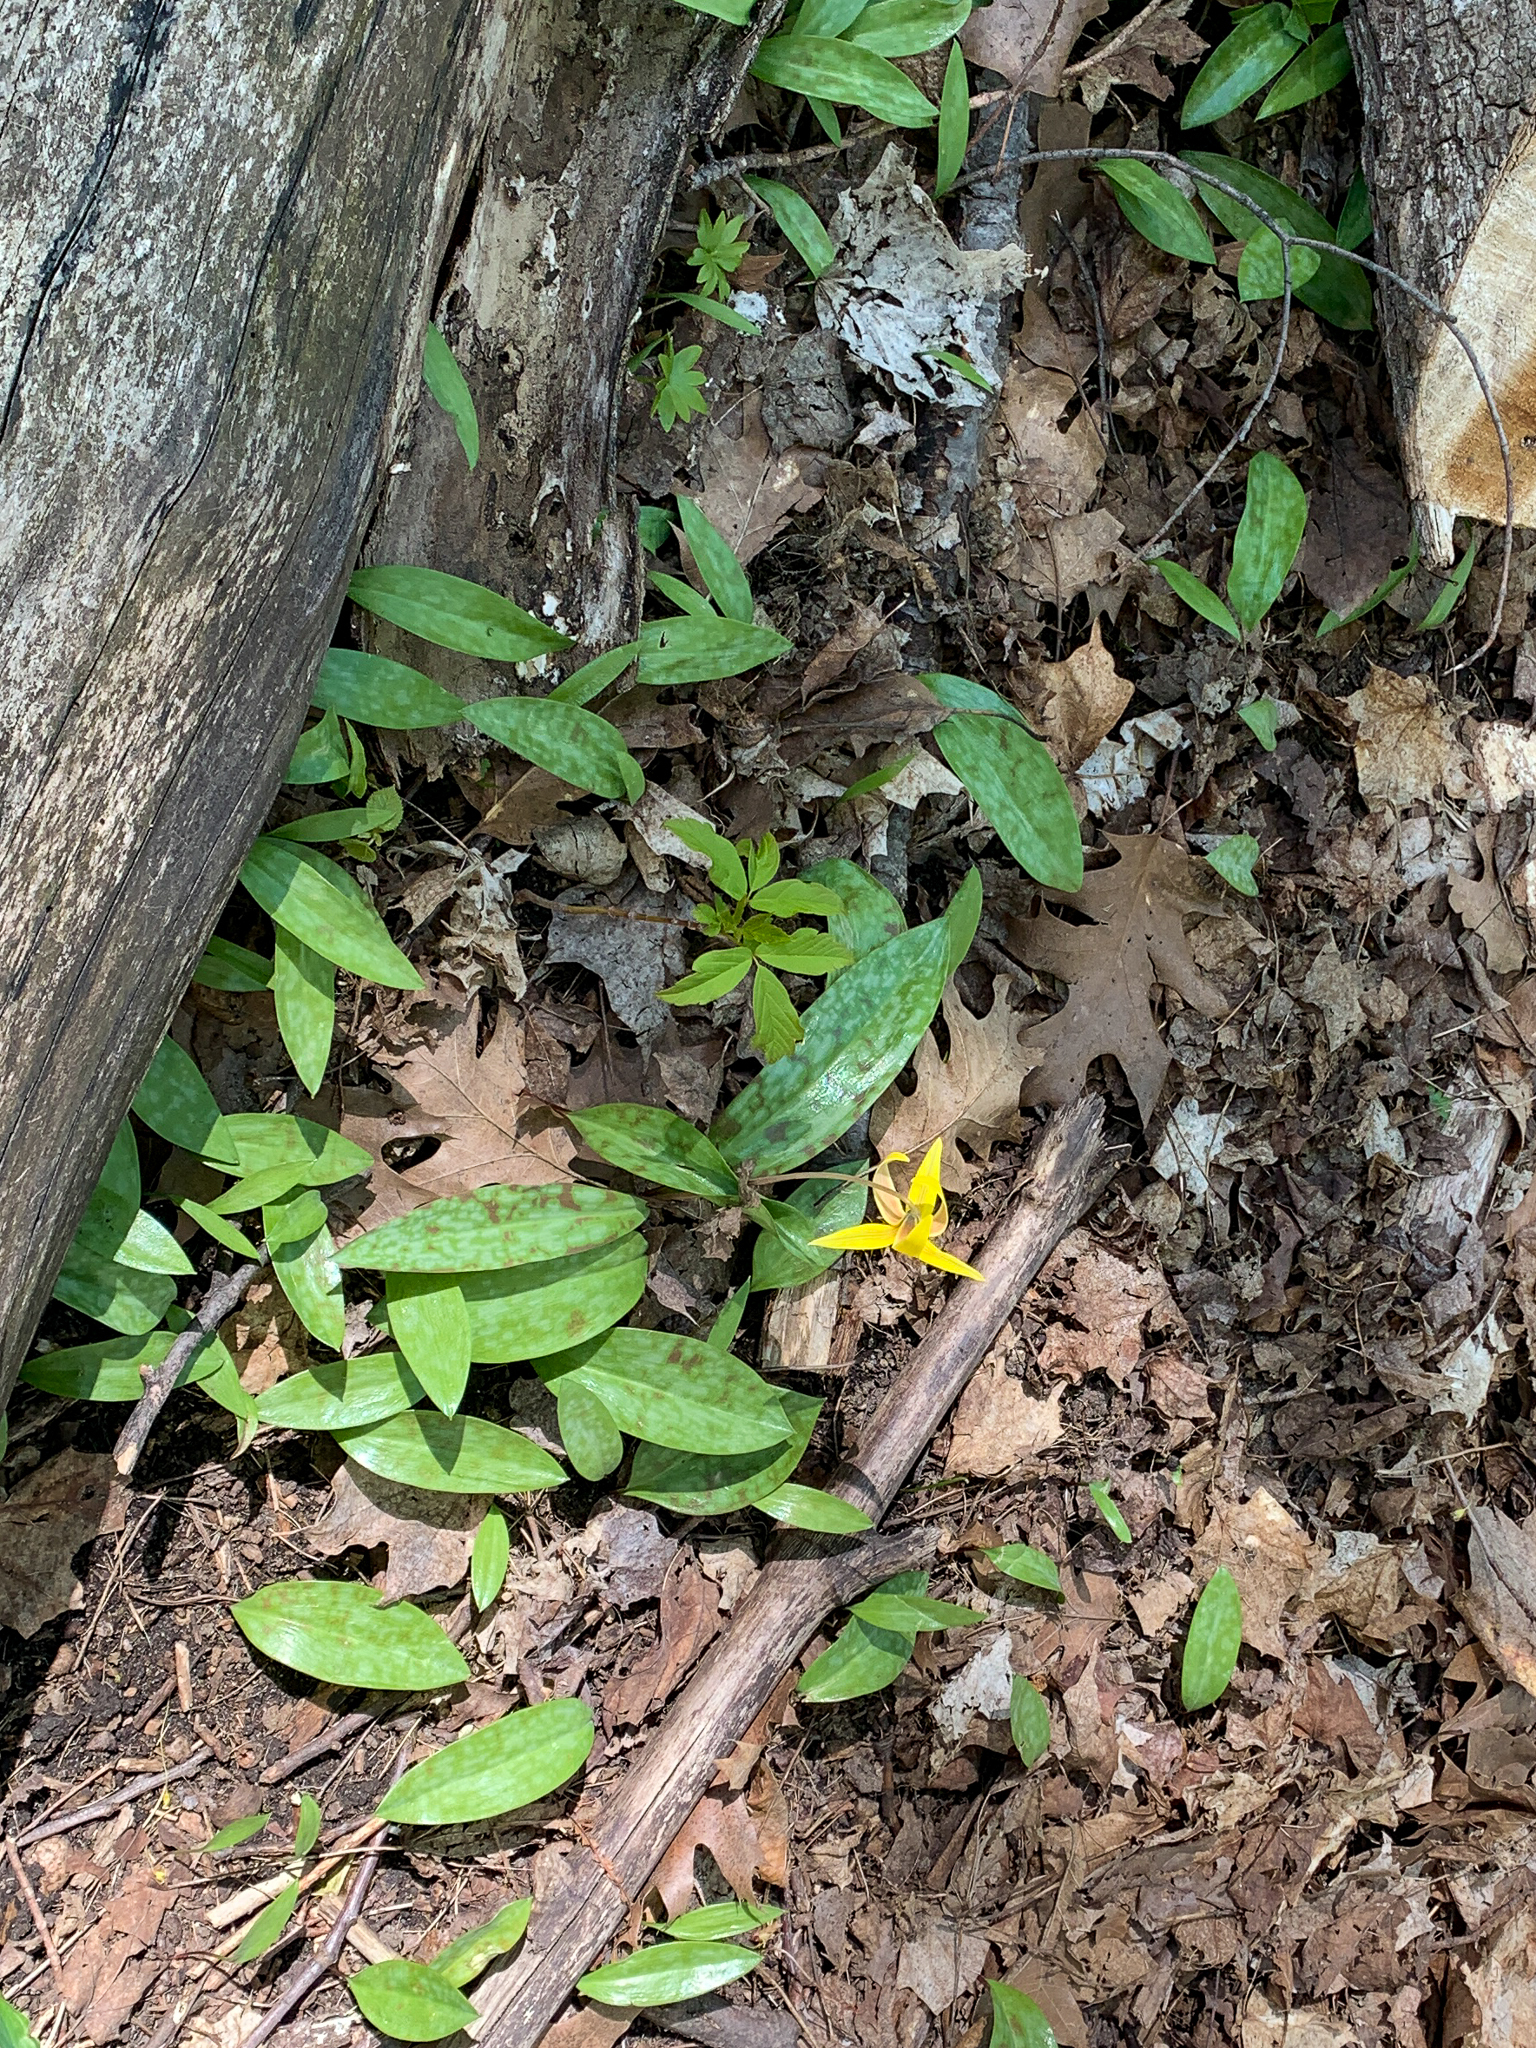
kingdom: Plantae
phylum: Tracheophyta
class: Liliopsida
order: Liliales
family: Liliaceae
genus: Erythronium
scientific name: Erythronium americanum
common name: Yellow adder's-tongue
